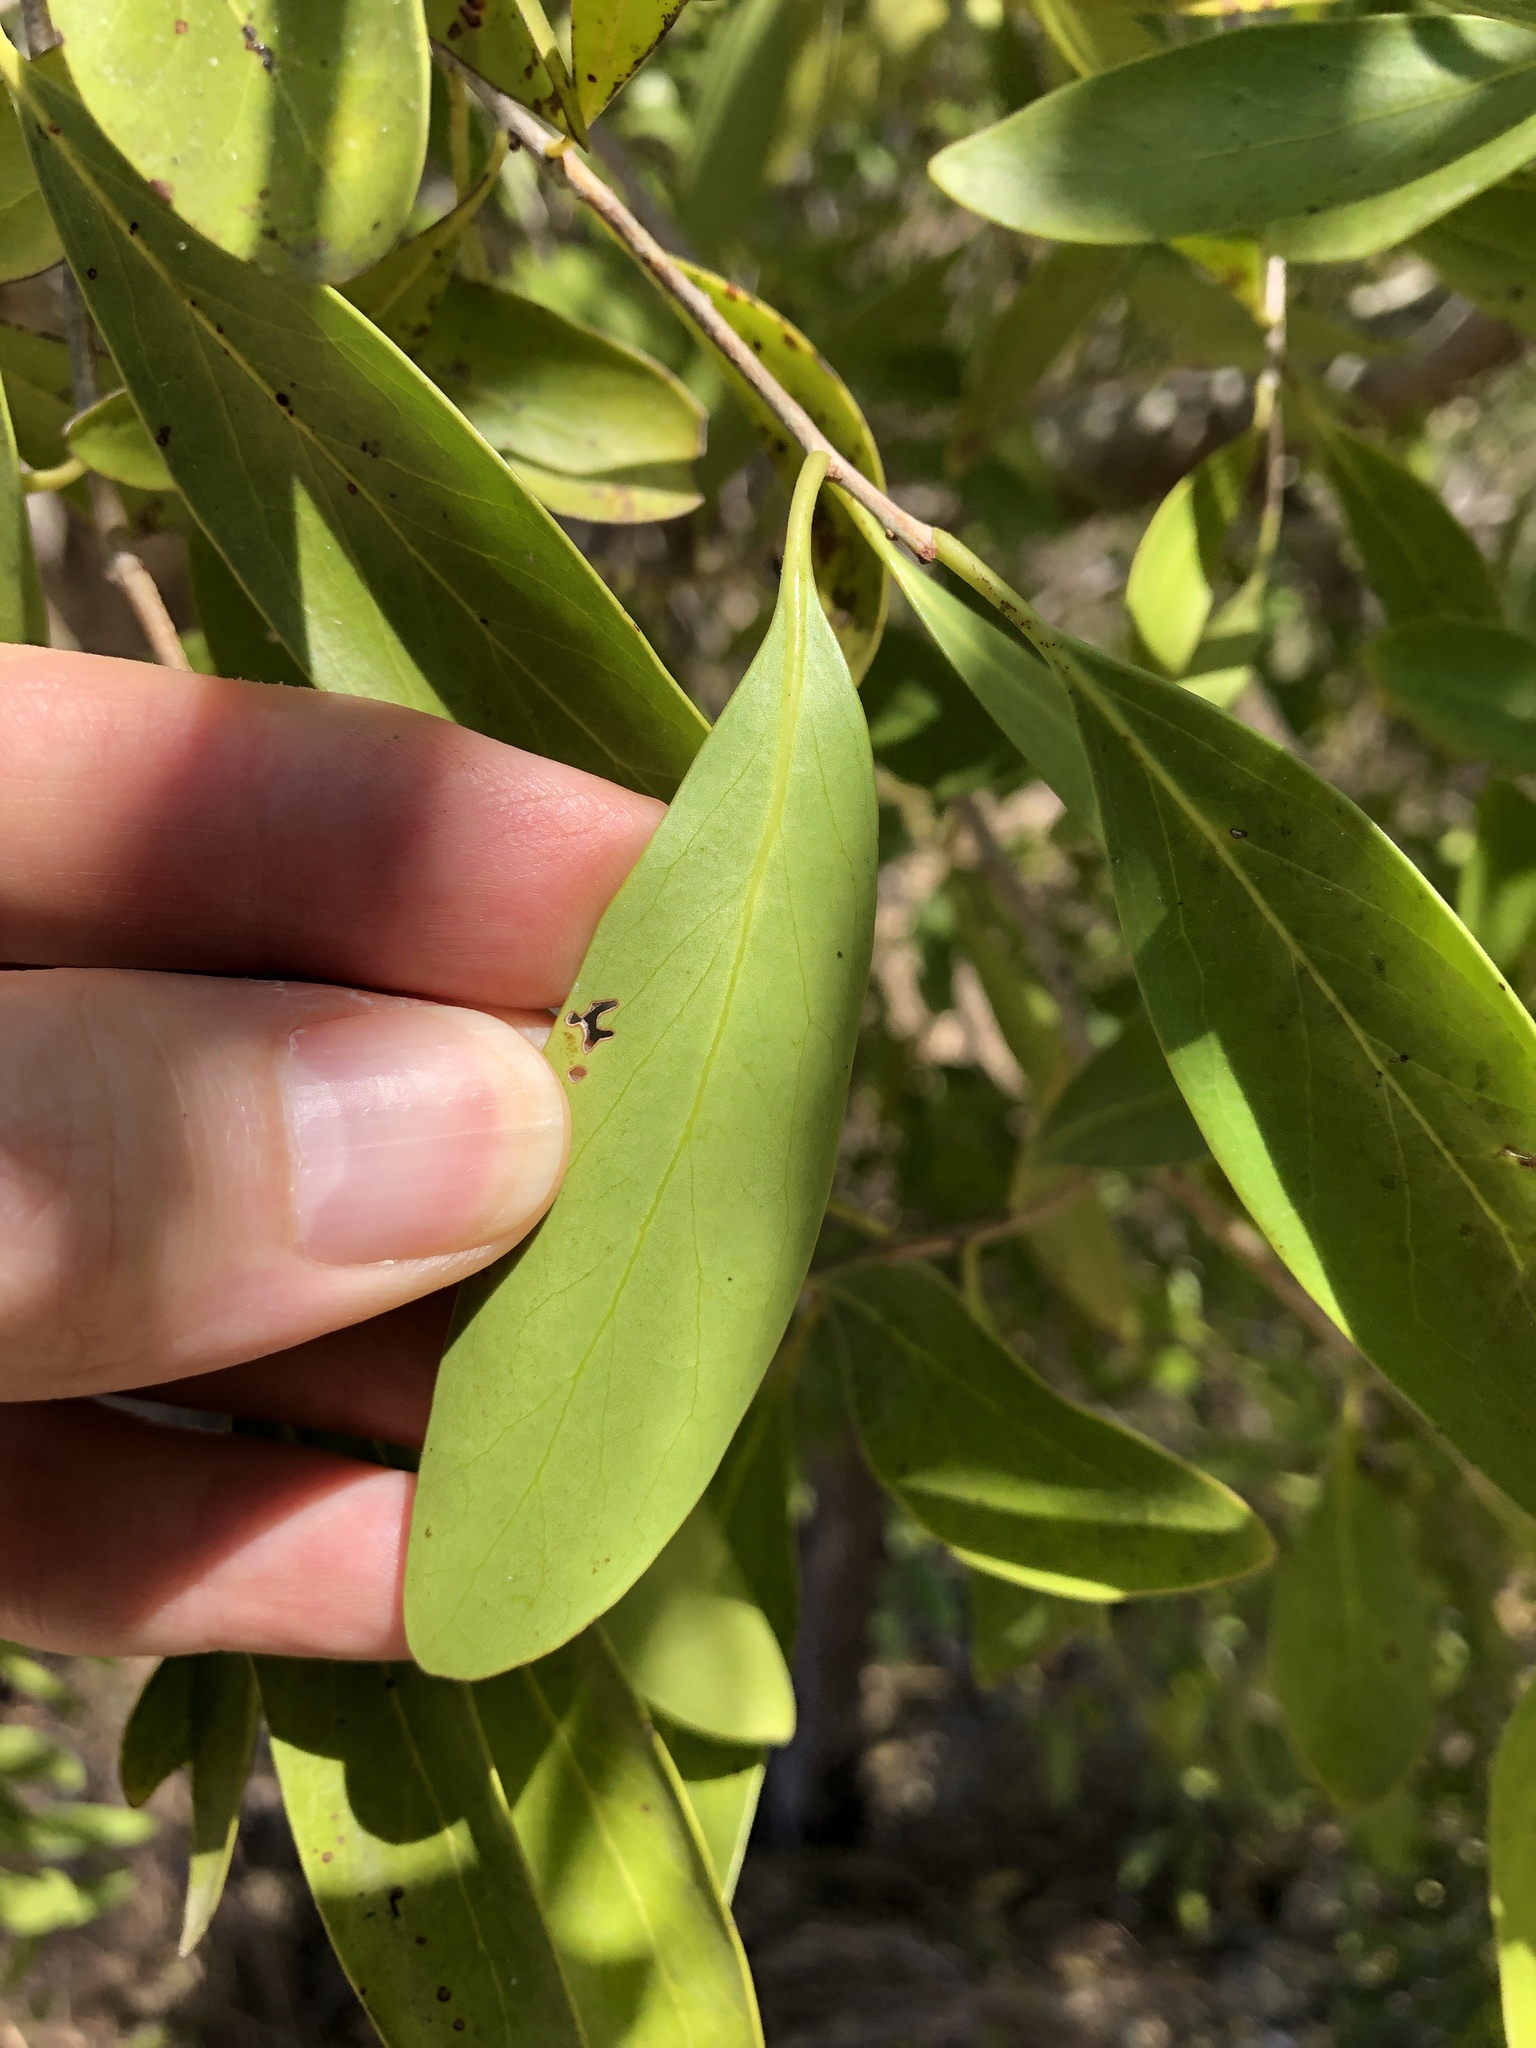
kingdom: Plantae
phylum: Tracheophyta
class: Magnoliopsida
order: Celastrales
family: Celastraceae
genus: Denhamia
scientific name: Denhamia disperma
